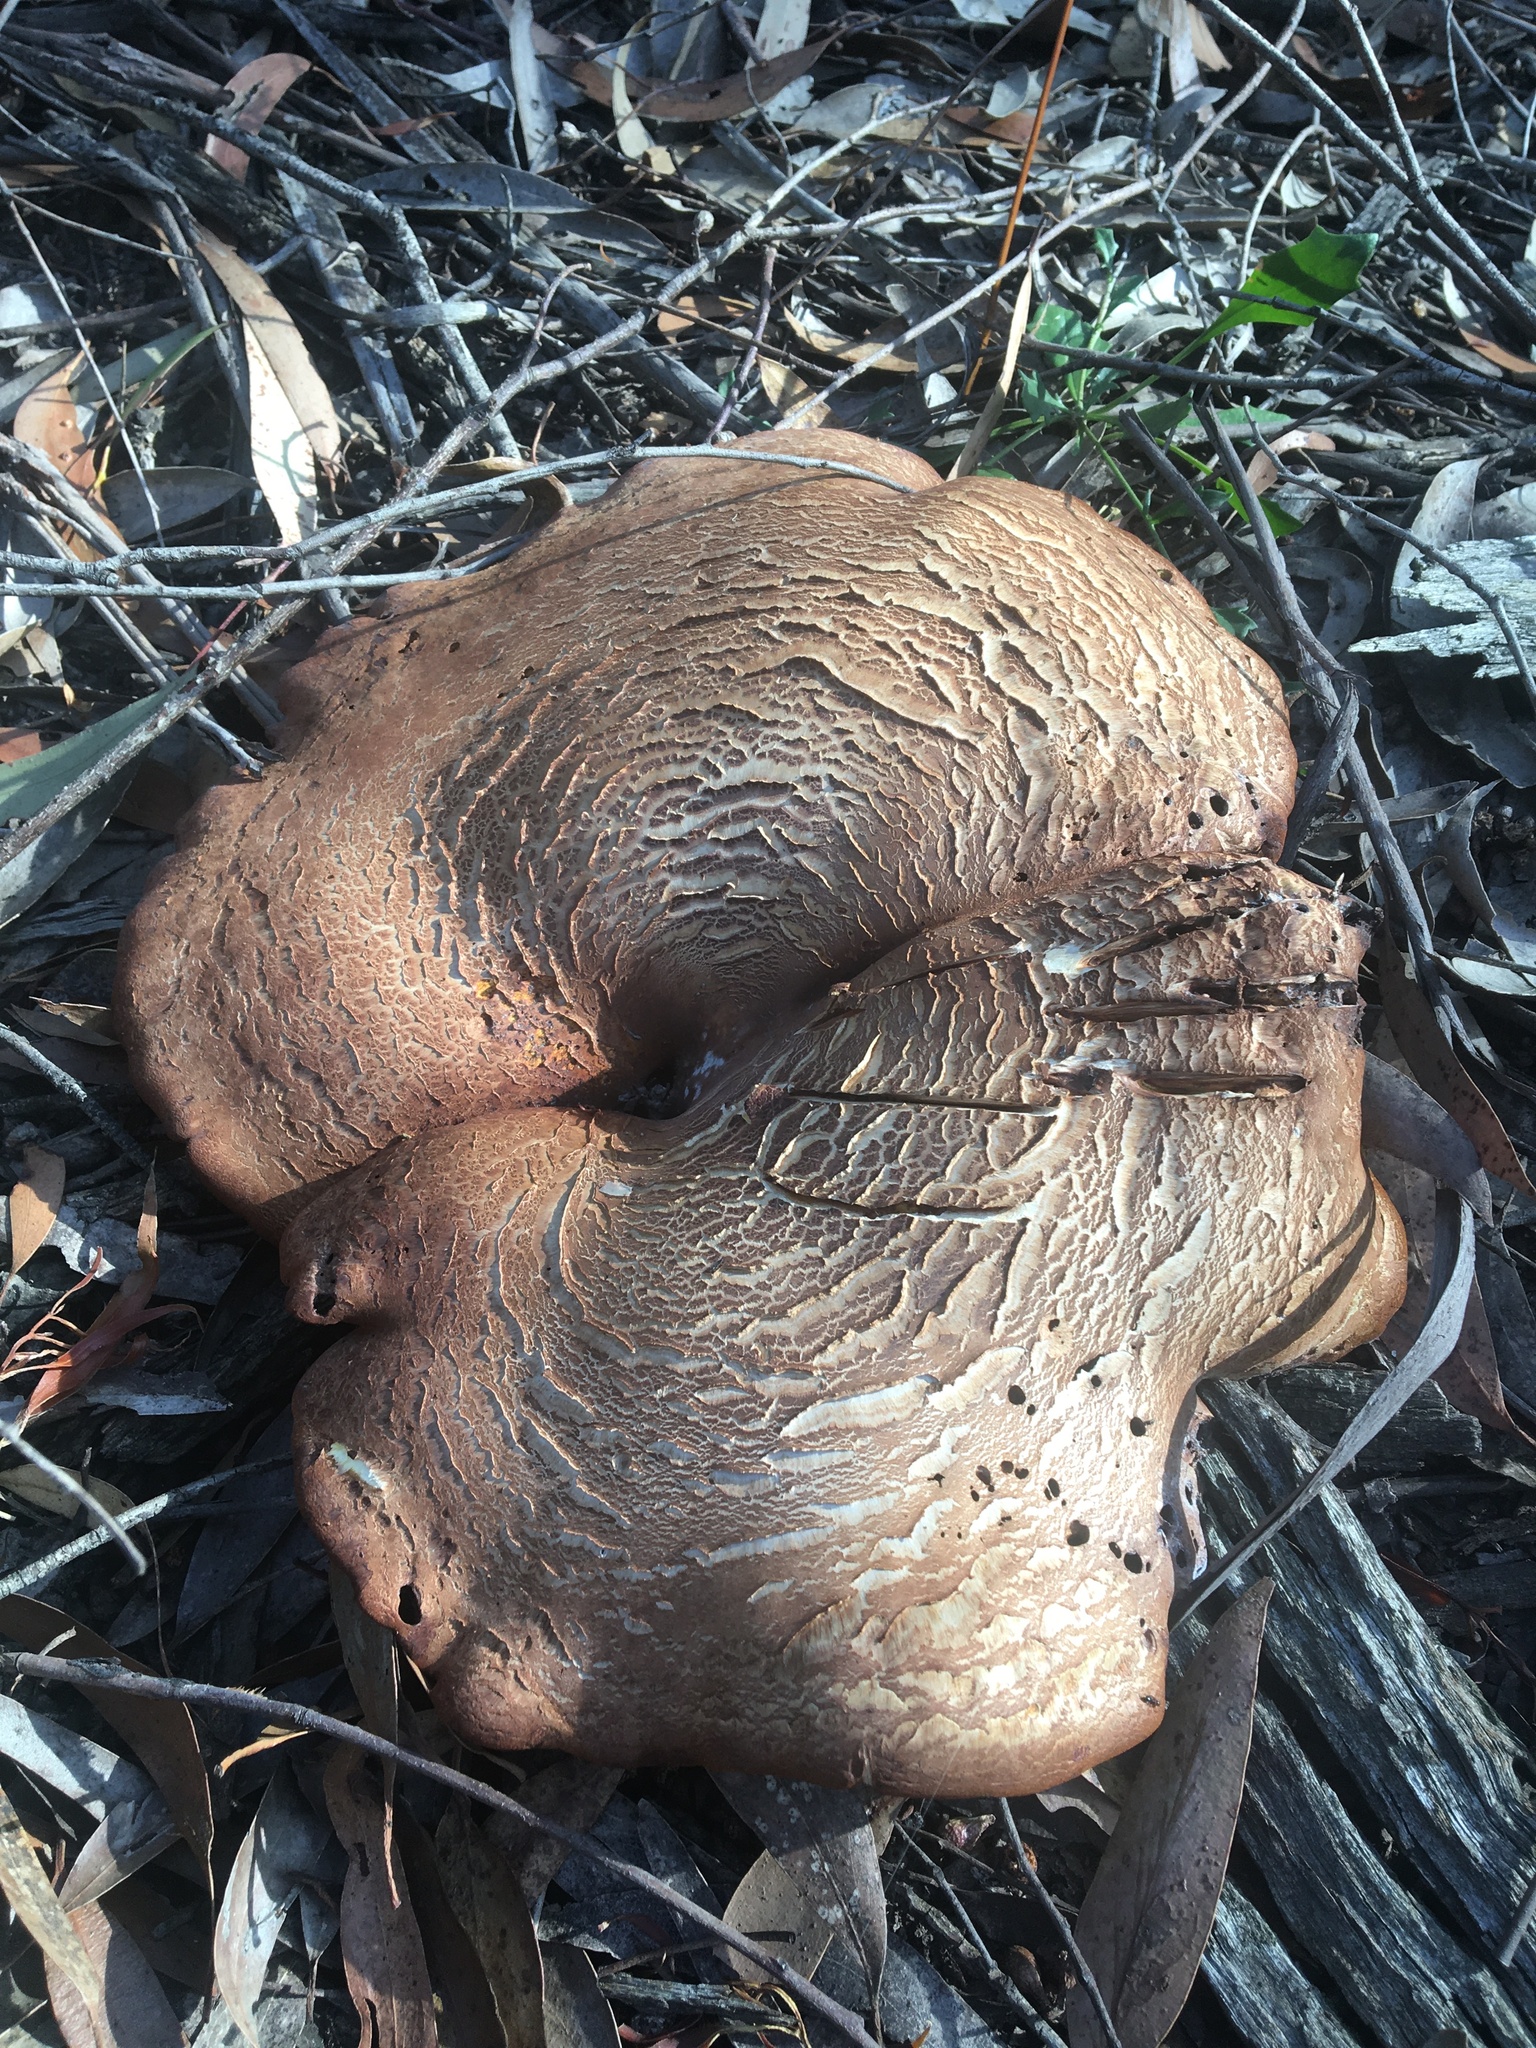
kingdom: Fungi
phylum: Basidiomycota
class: Agaricomycetes
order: Polyporales
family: Fomitopsidaceae
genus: Fomitopsis
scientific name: Fomitopsis
